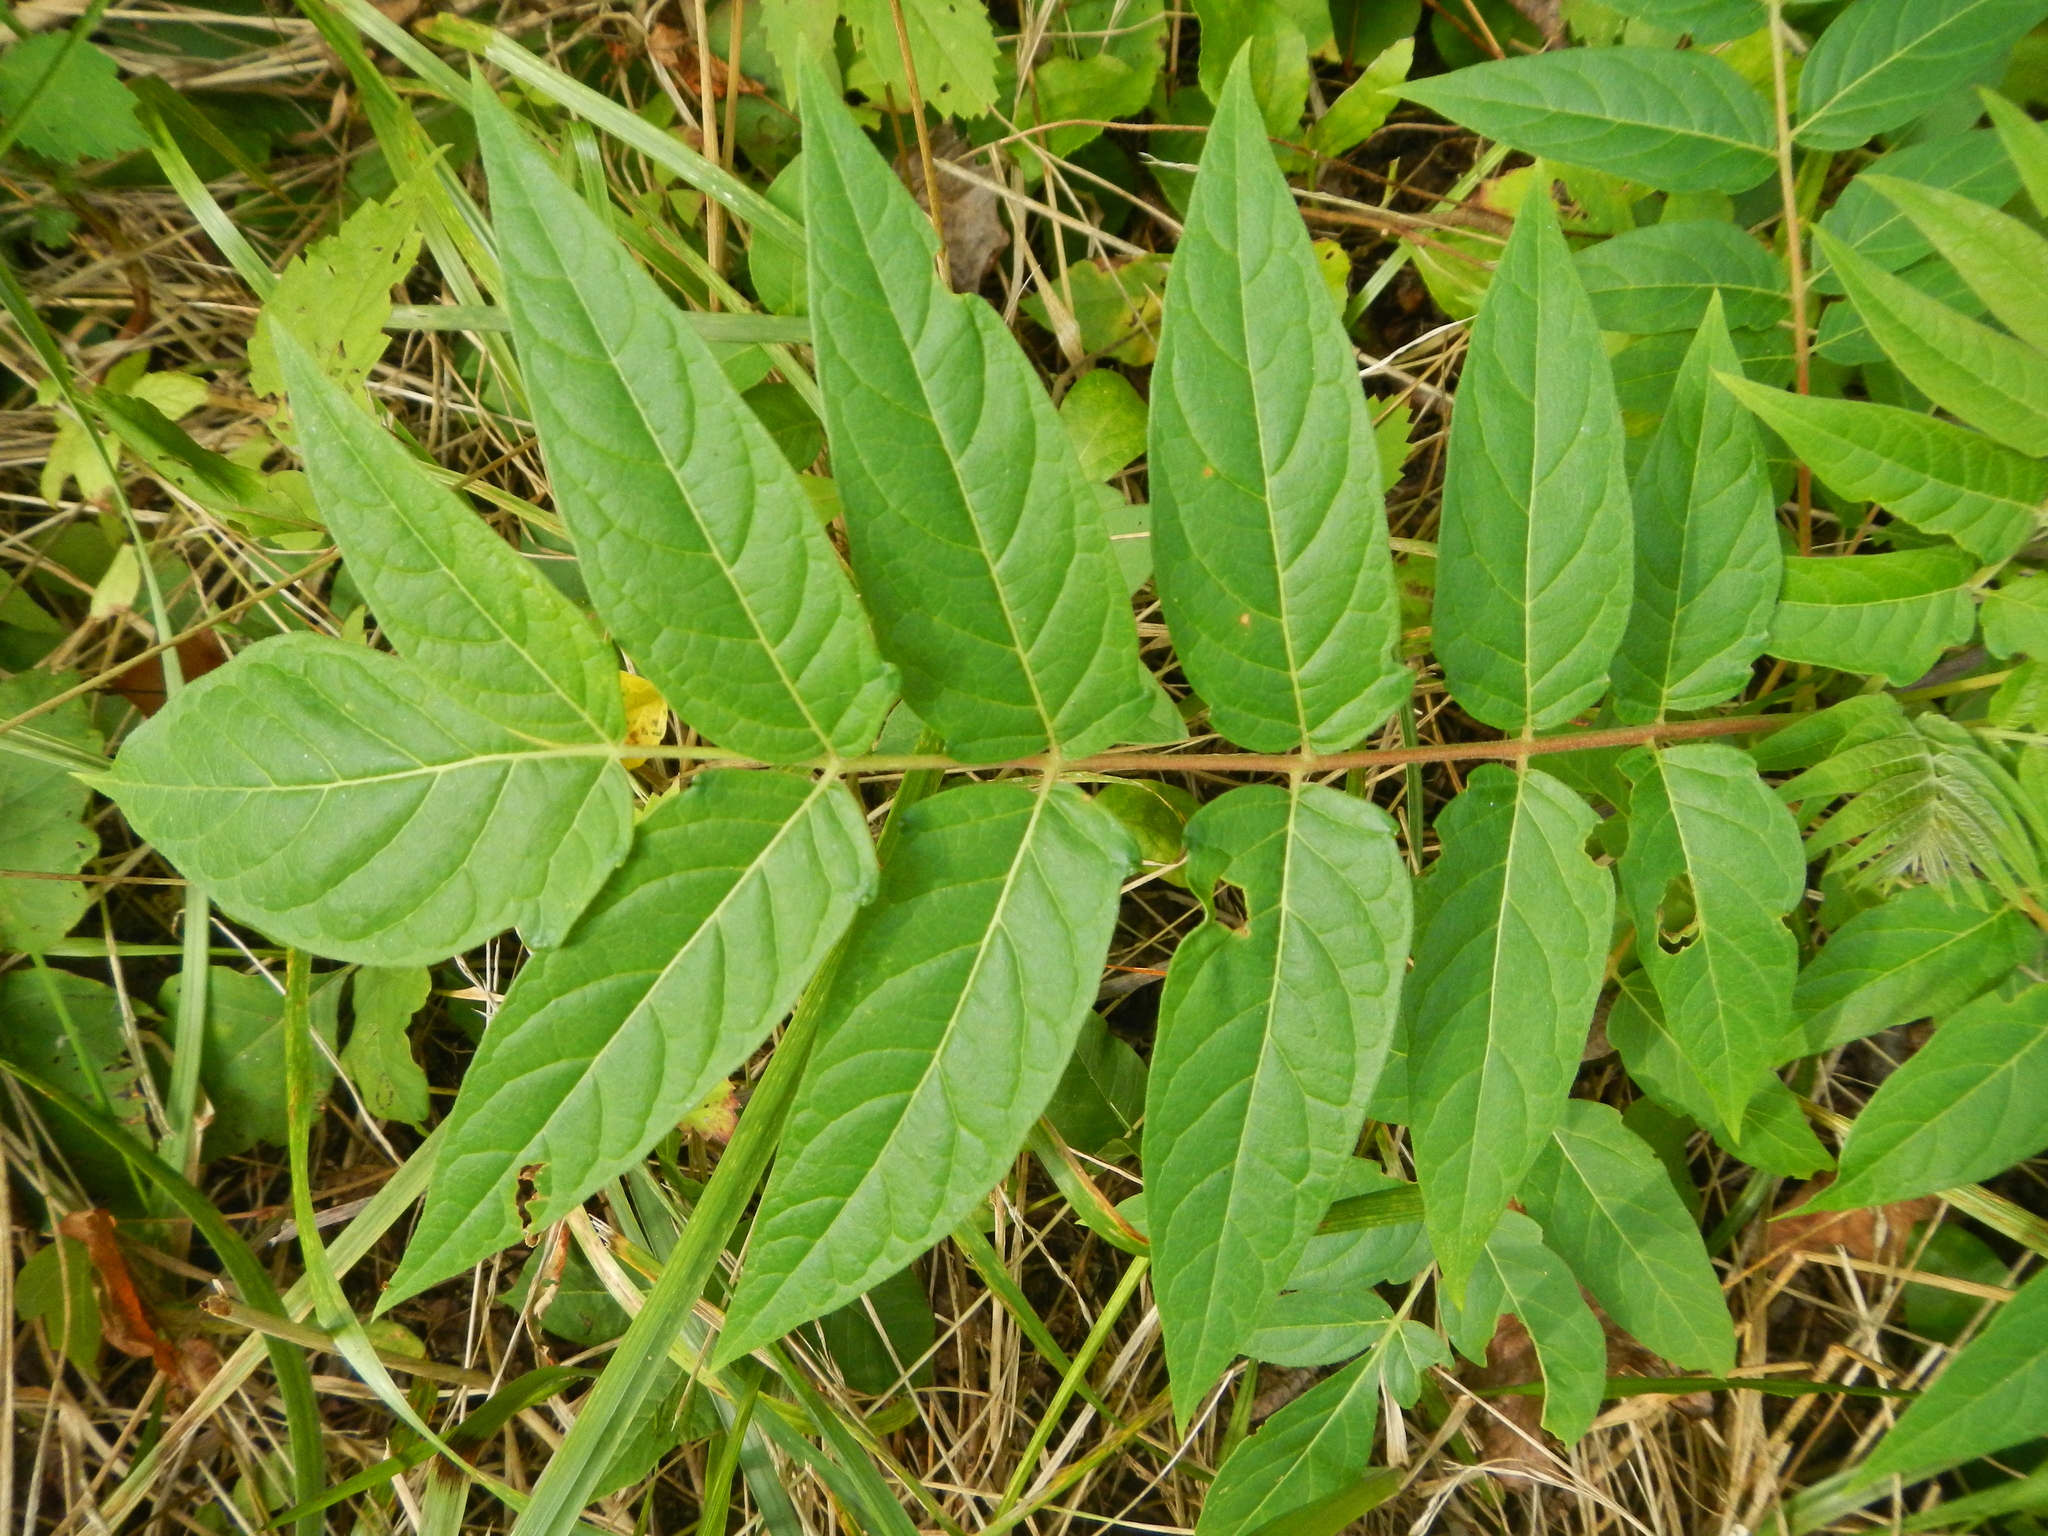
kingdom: Plantae
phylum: Tracheophyta
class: Magnoliopsida
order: Sapindales
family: Simaroubaceae
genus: Ailanthus
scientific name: Ailanthus altissima
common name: Tree-of-heaven
